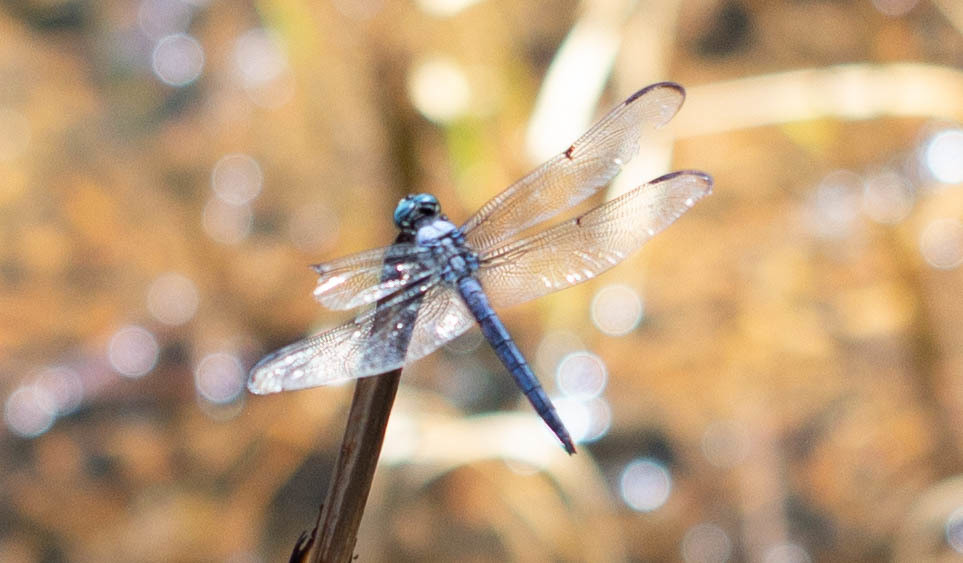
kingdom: Animalia
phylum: Arthropoda
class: Insecta
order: Odonata
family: Libellulidae
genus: Libellula
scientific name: Libellula vibrans
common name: Great blue skimmer
